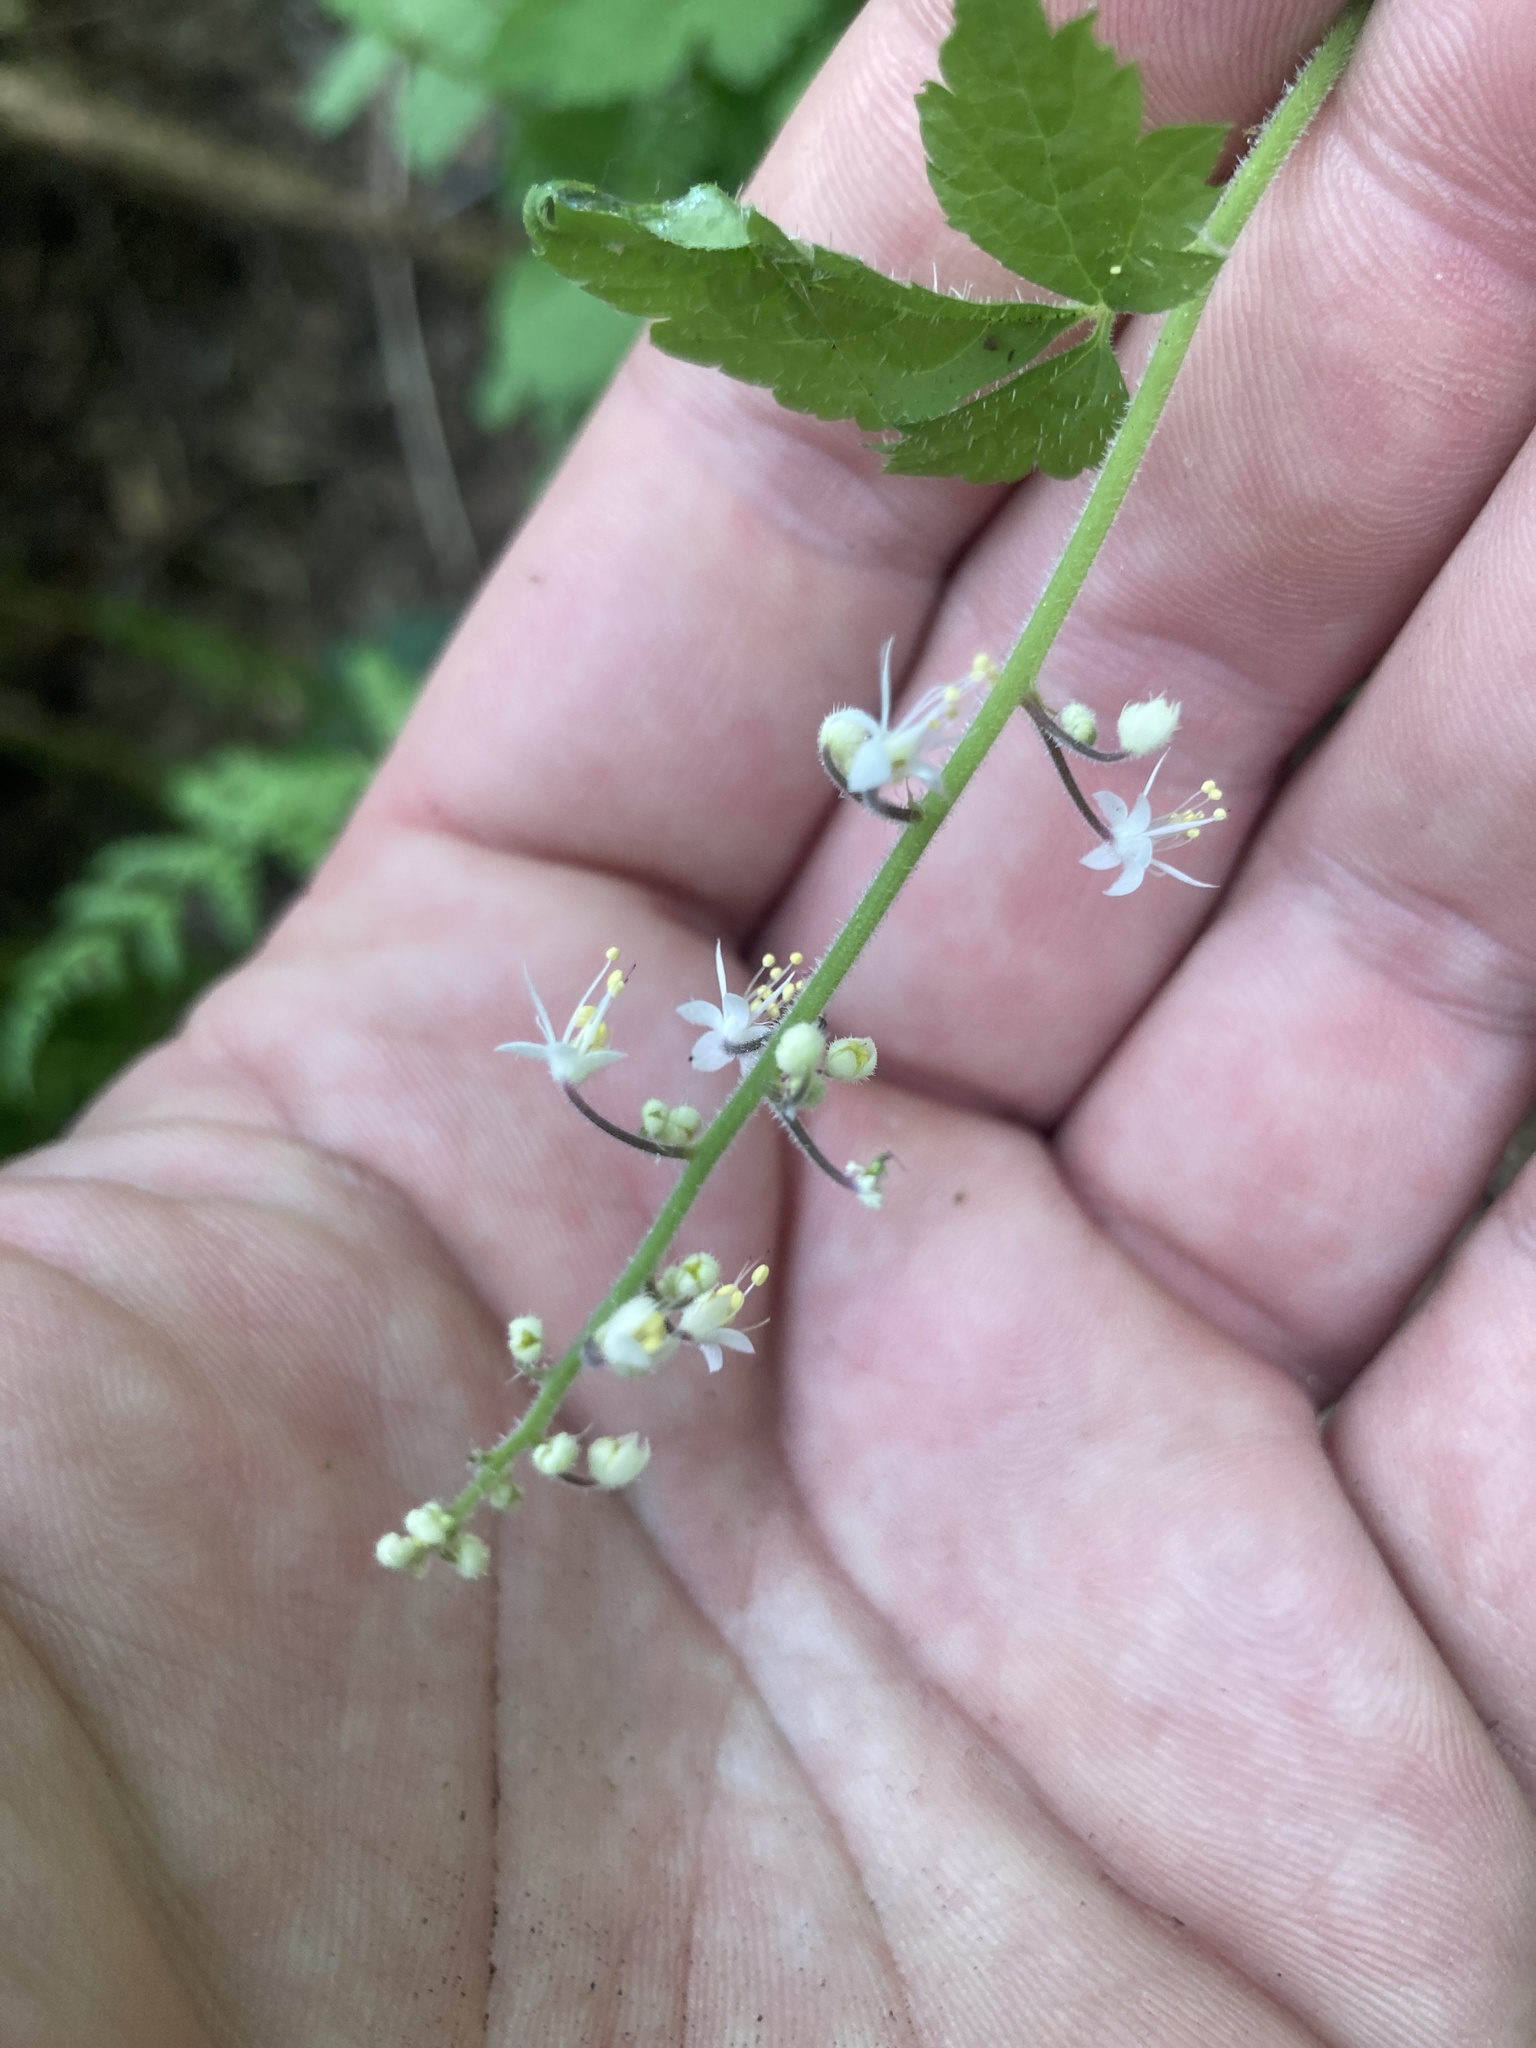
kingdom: Plantae
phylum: Tracheophyta
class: Magnoliopsida
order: Saxifragales
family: Saxifragaceae
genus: Tiarella
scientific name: Tiarella trifoliata
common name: Sugar-scoop
